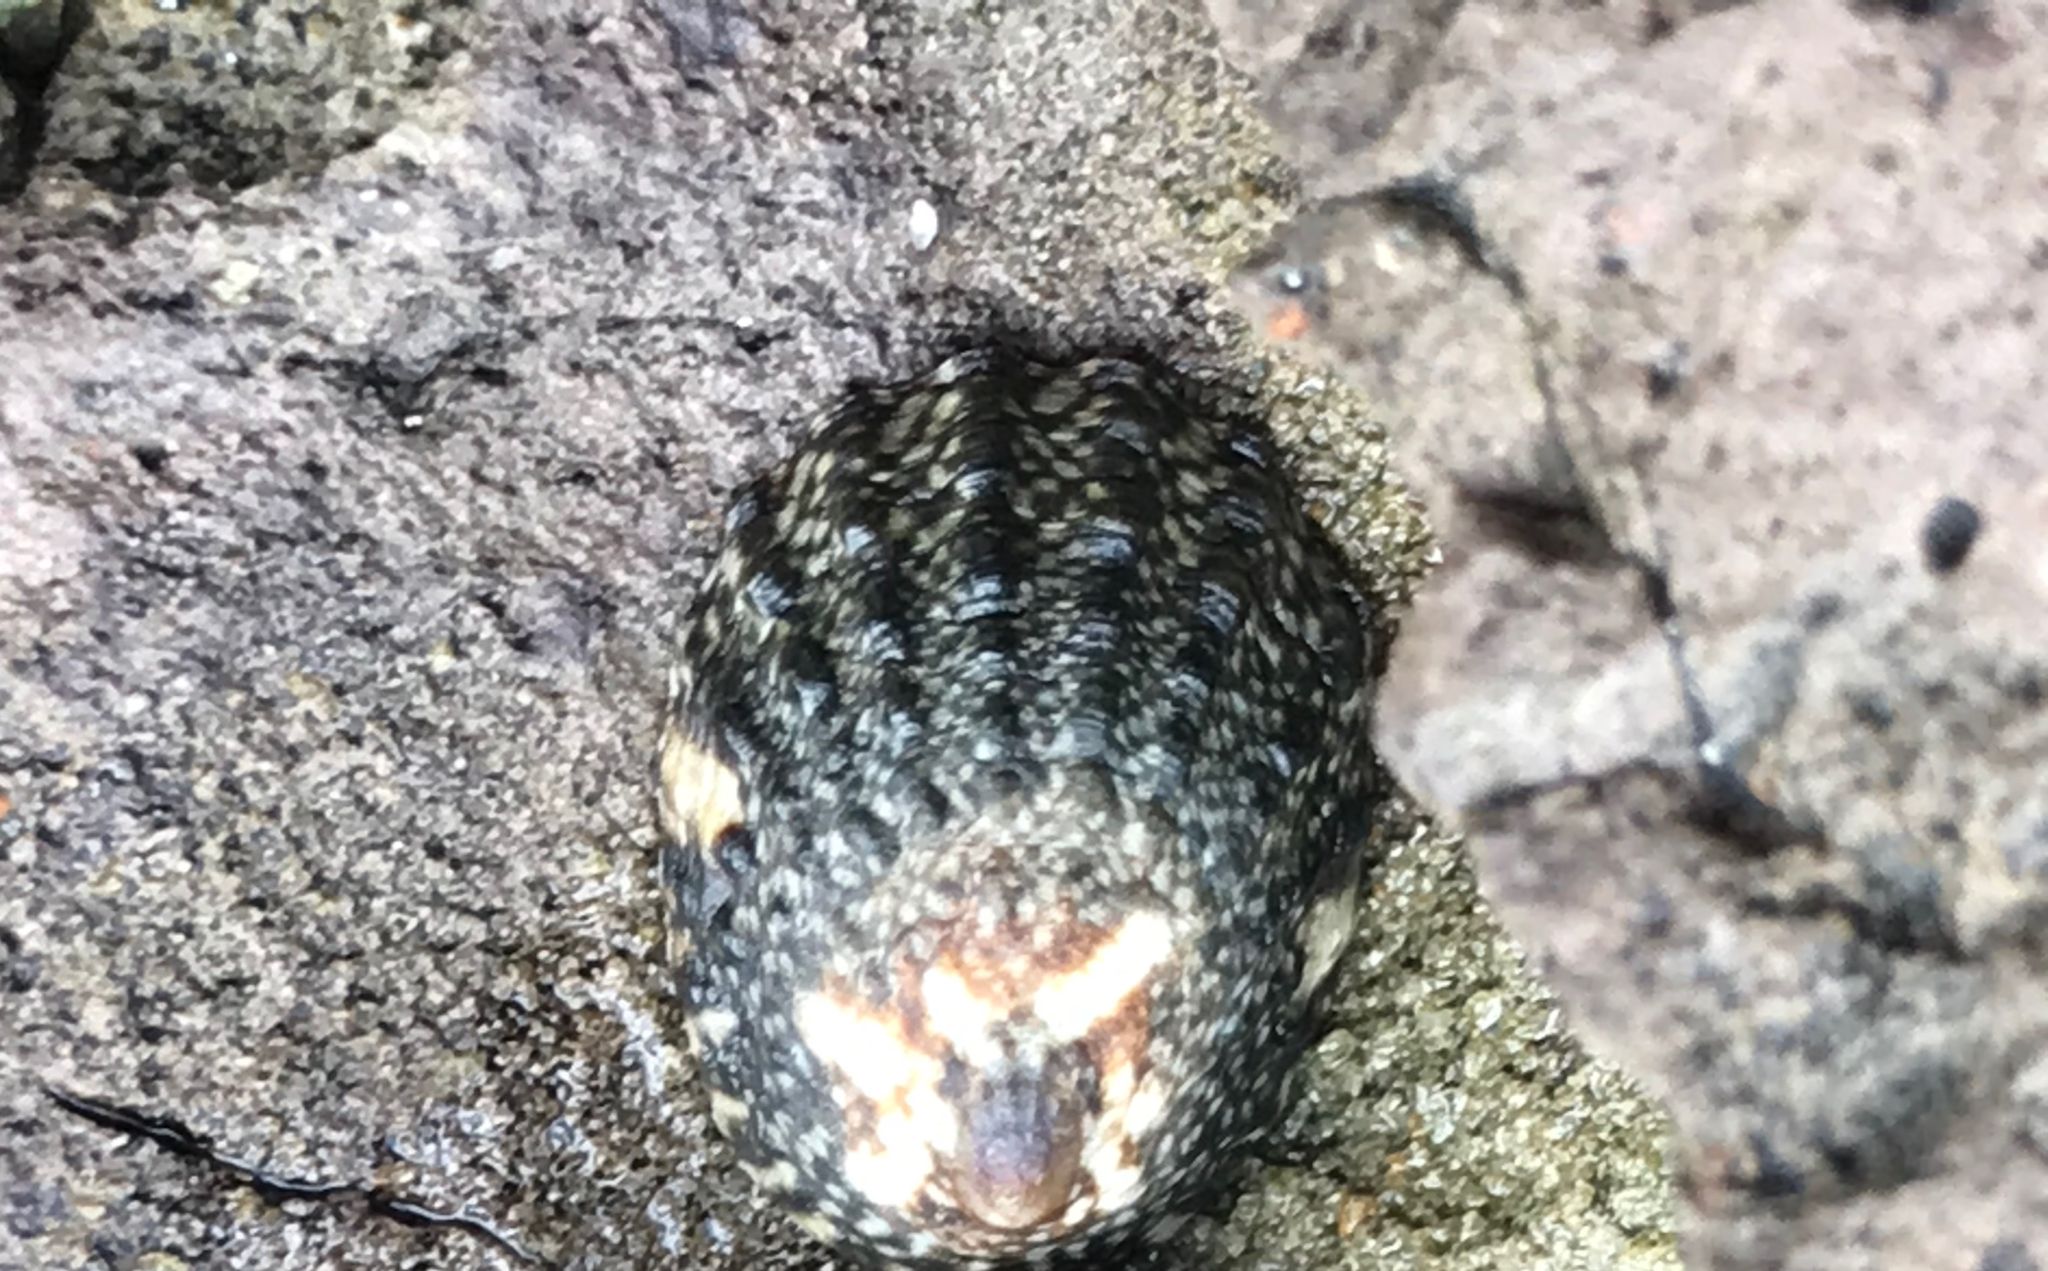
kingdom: Animalia
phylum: Mollusca
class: Gastropoda
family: Lottiidae
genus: Lottia
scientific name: Lottia austrodigitalis
